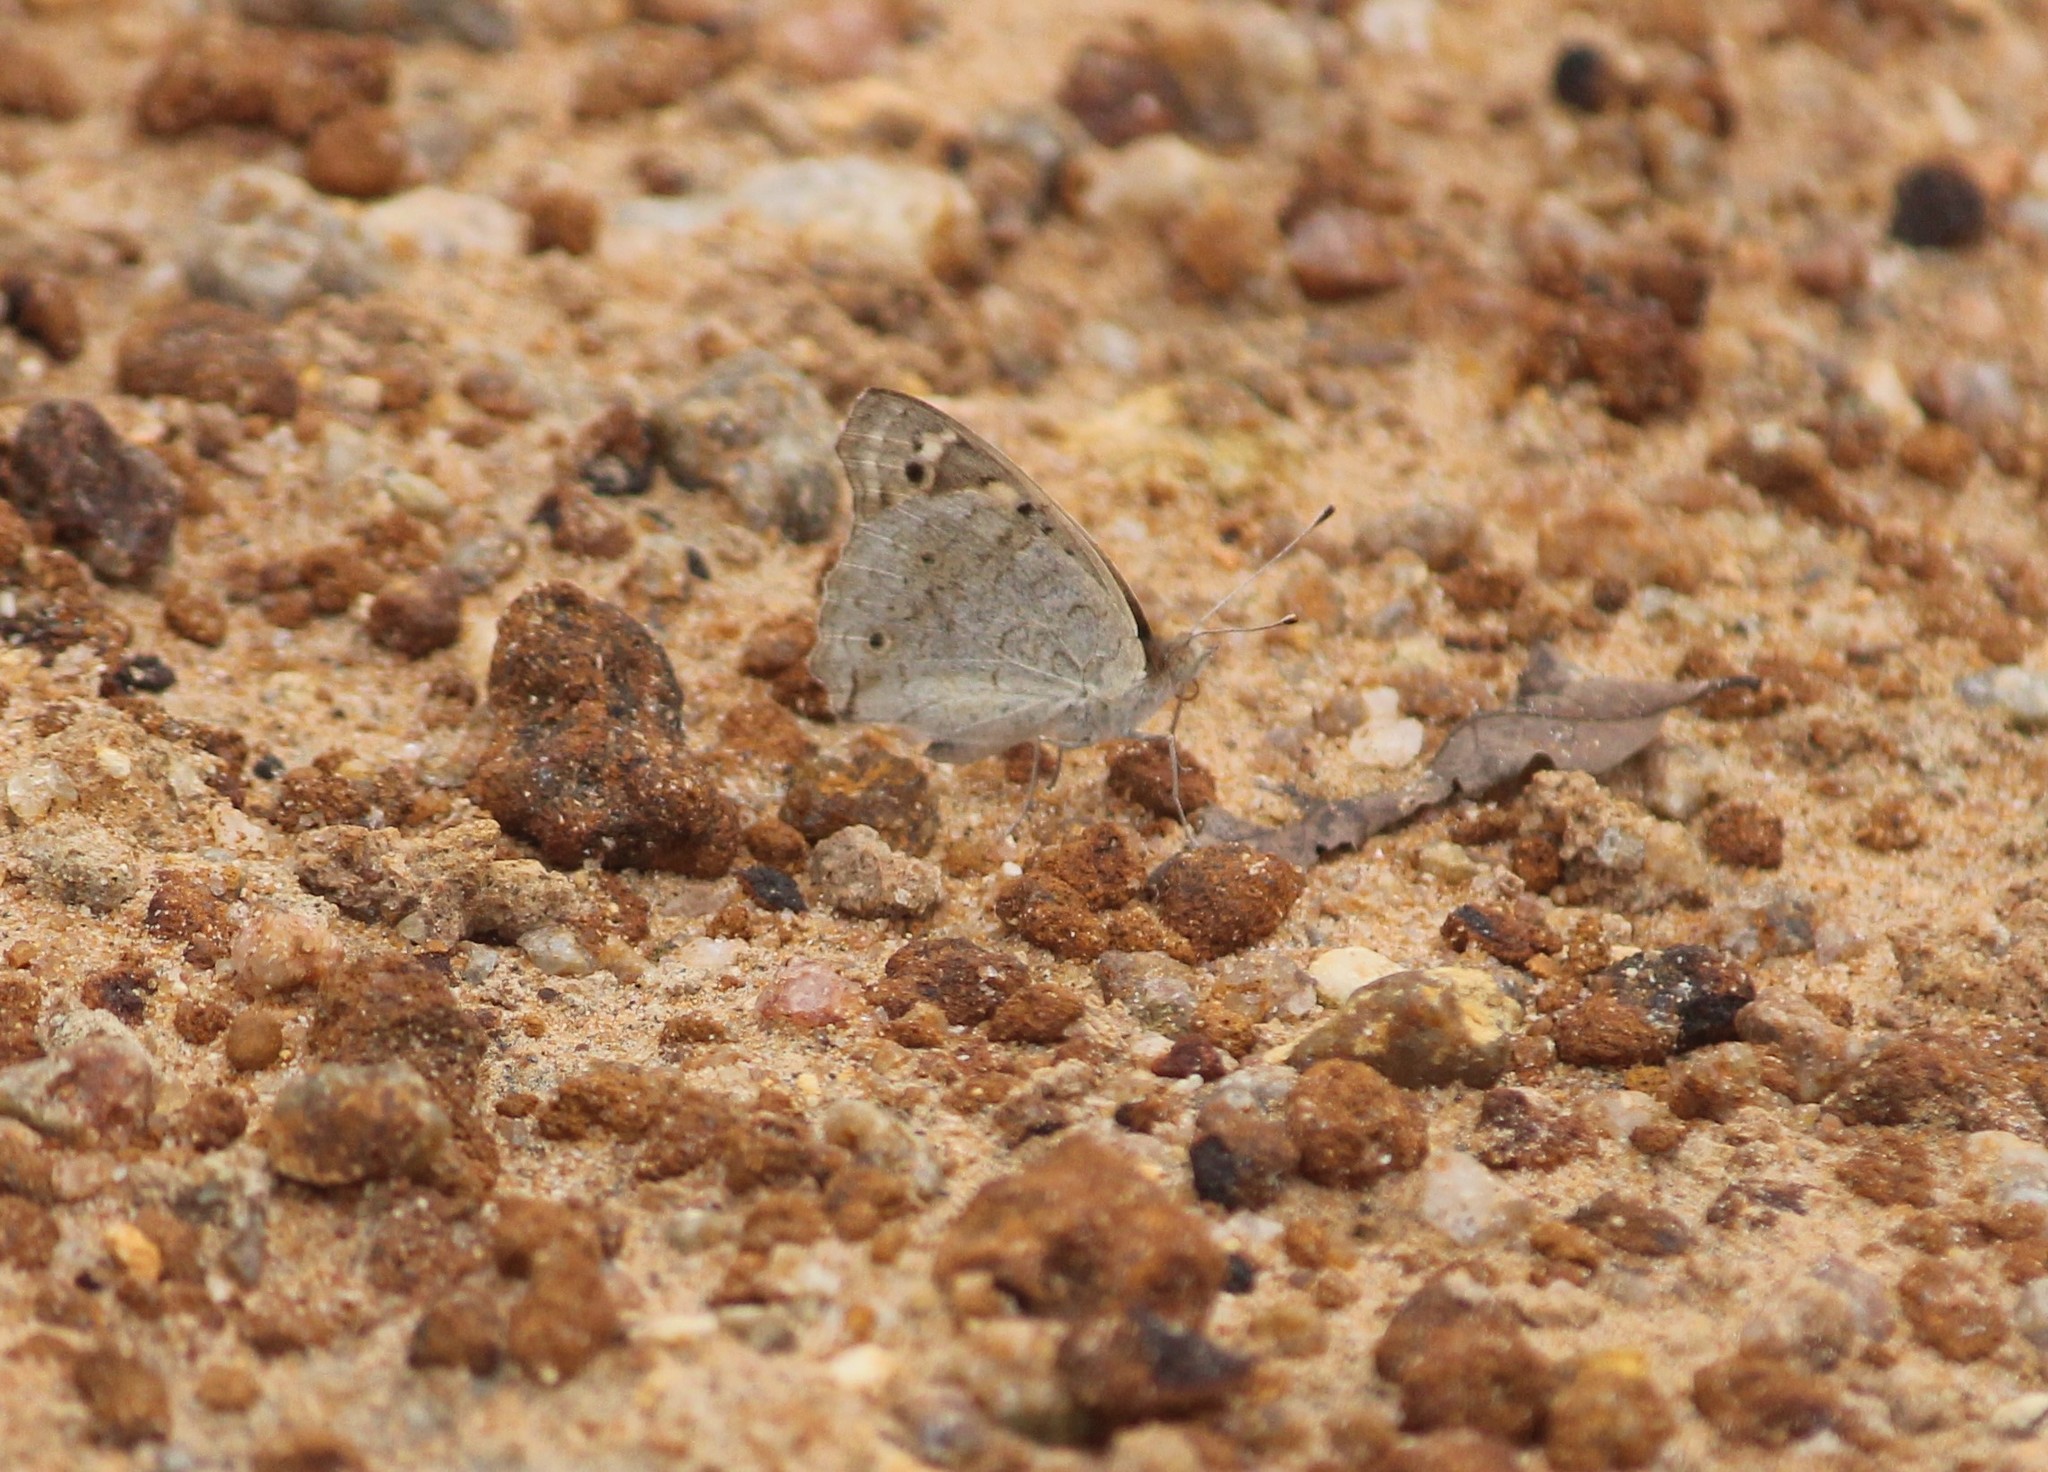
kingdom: Animalia
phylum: Arthropoda
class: Insecta
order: Lepidoptera
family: Nymphalidae
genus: Junonia
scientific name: Junonia orithya
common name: Blue pansy
